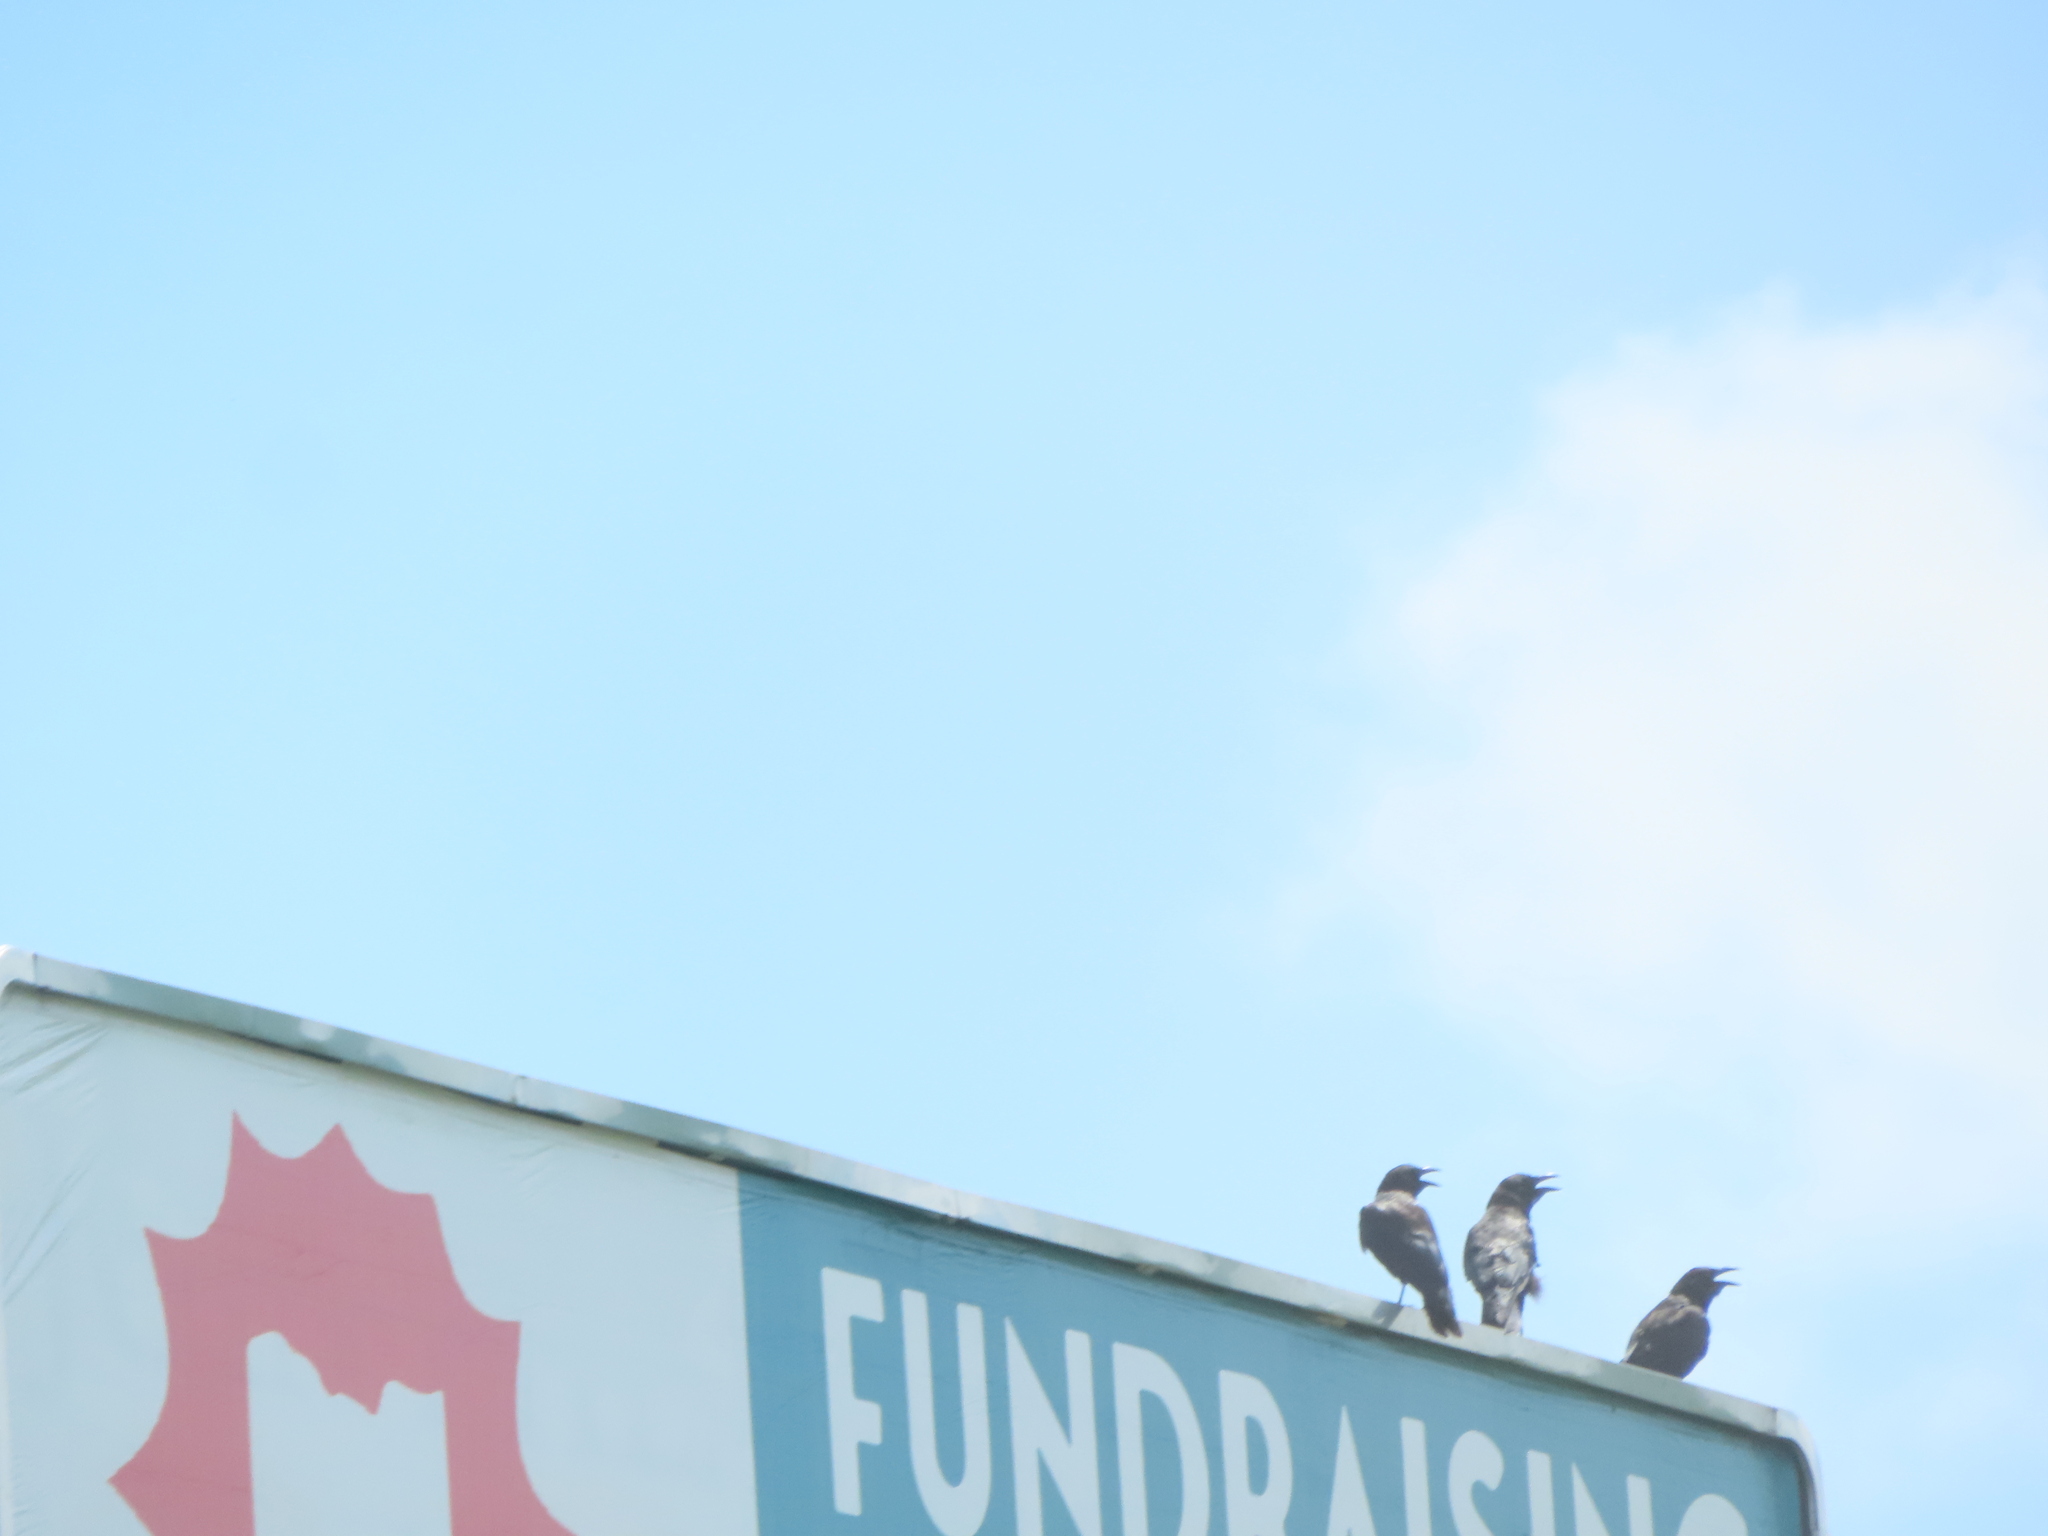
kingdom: Animalia
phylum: Chordata
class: Aves
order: Passeriformes
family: Corvidae
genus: Corvus
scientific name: Corvus brachyrhynchos
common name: American crow
